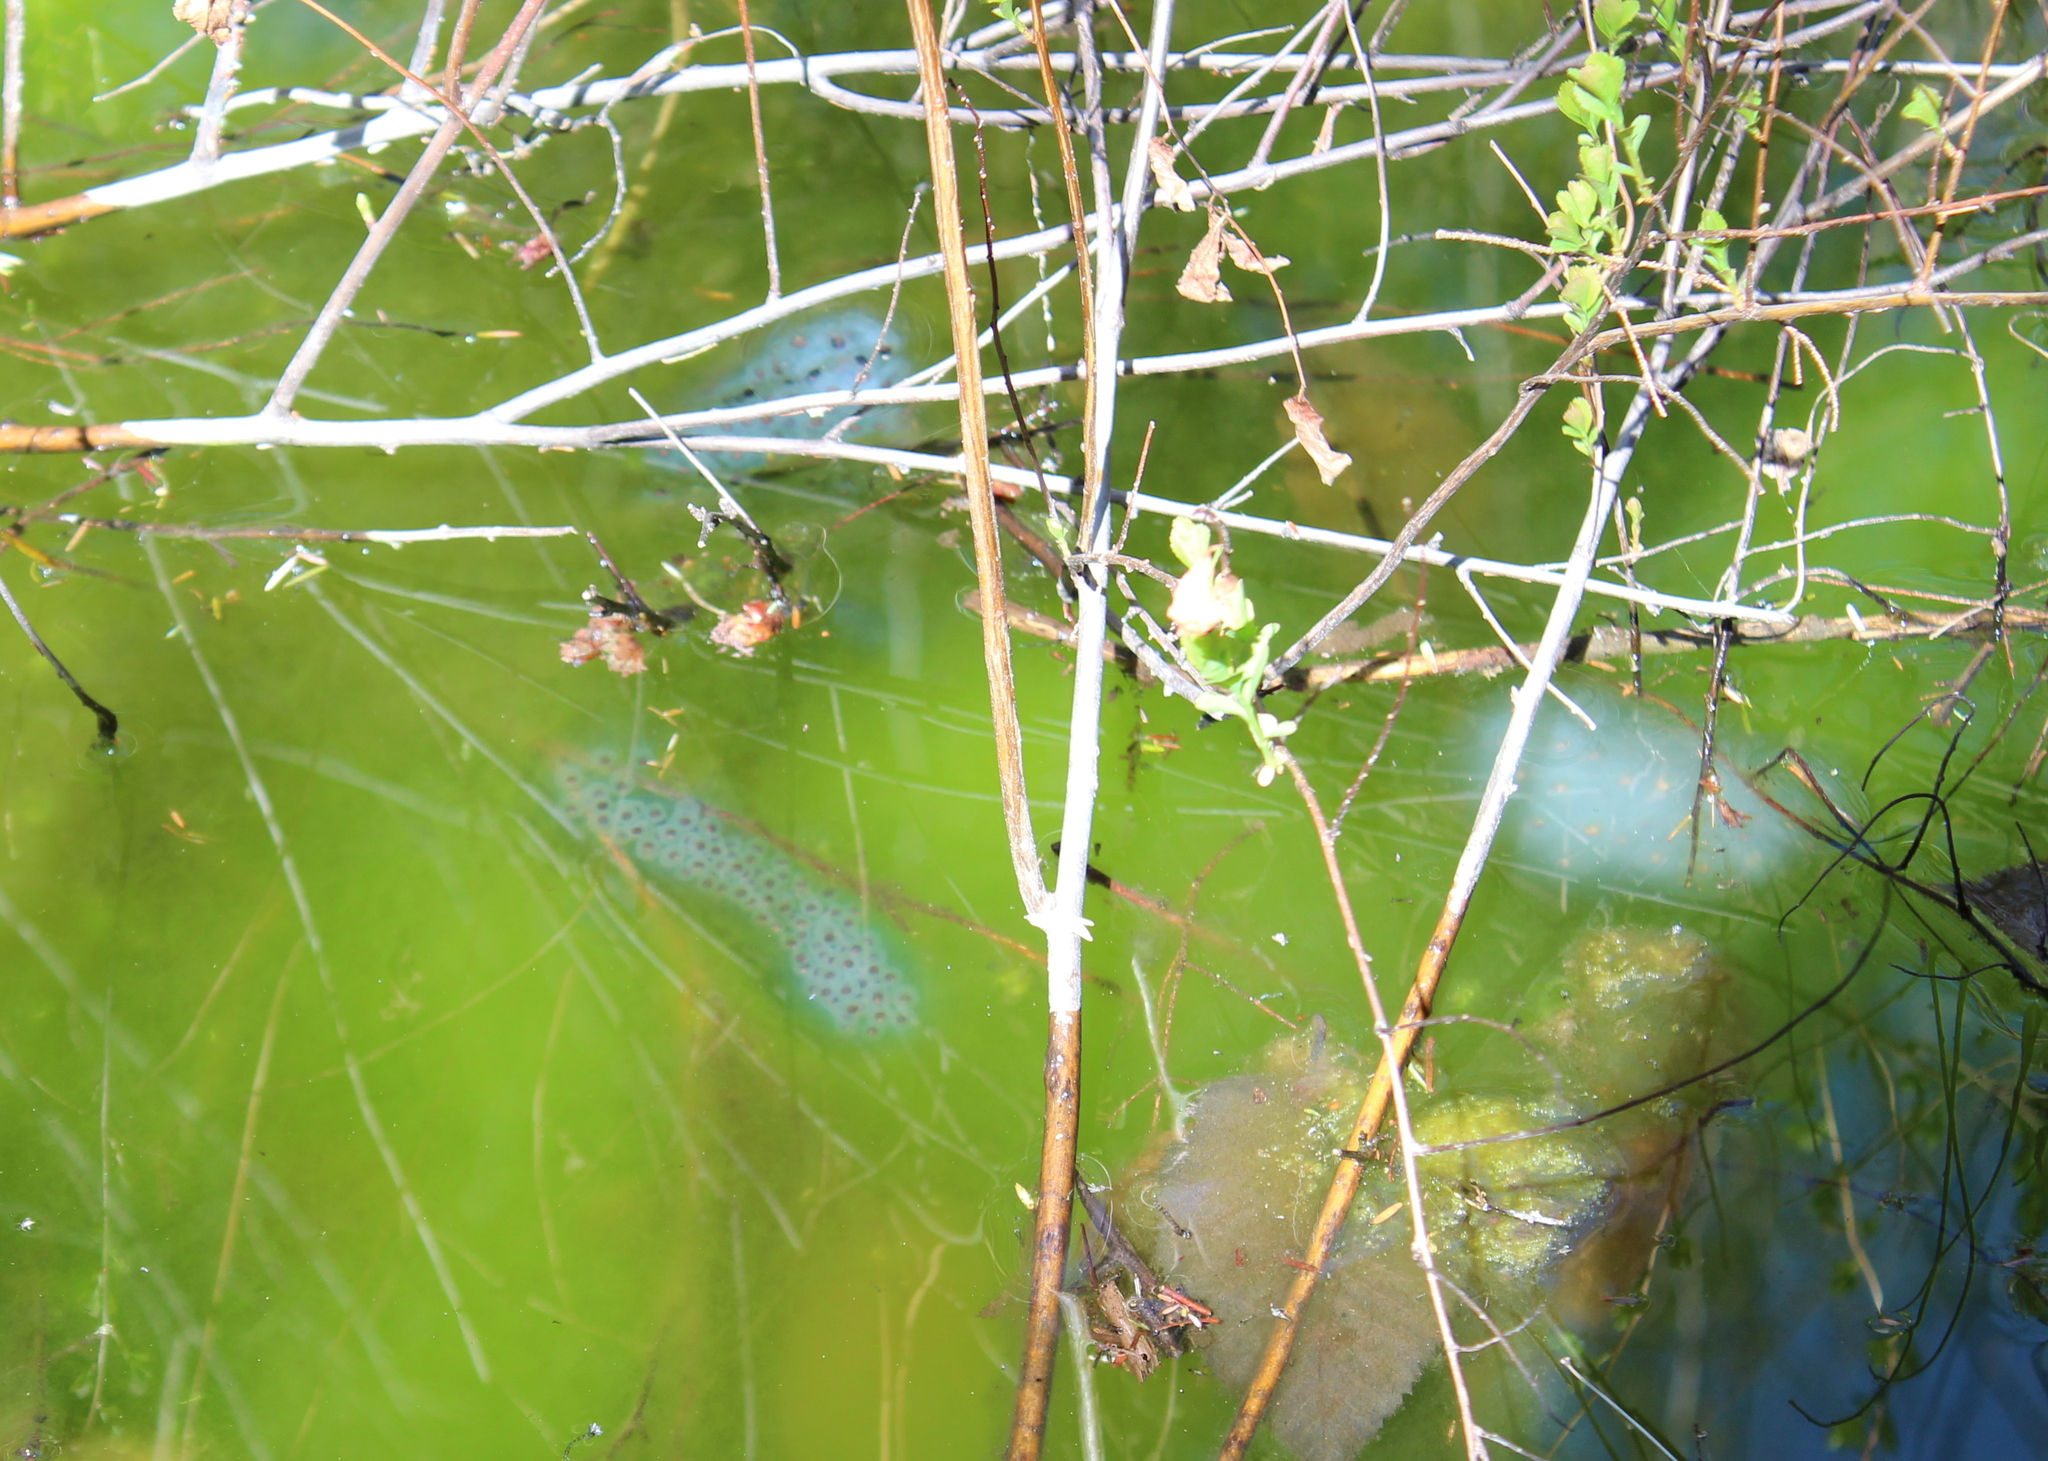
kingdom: Animalia
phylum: Chordata
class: Amphibia
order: Caudata
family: Ambystomatidae
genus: Ambystoma
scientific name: Ambystoma maculatum
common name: Spotted salamander
